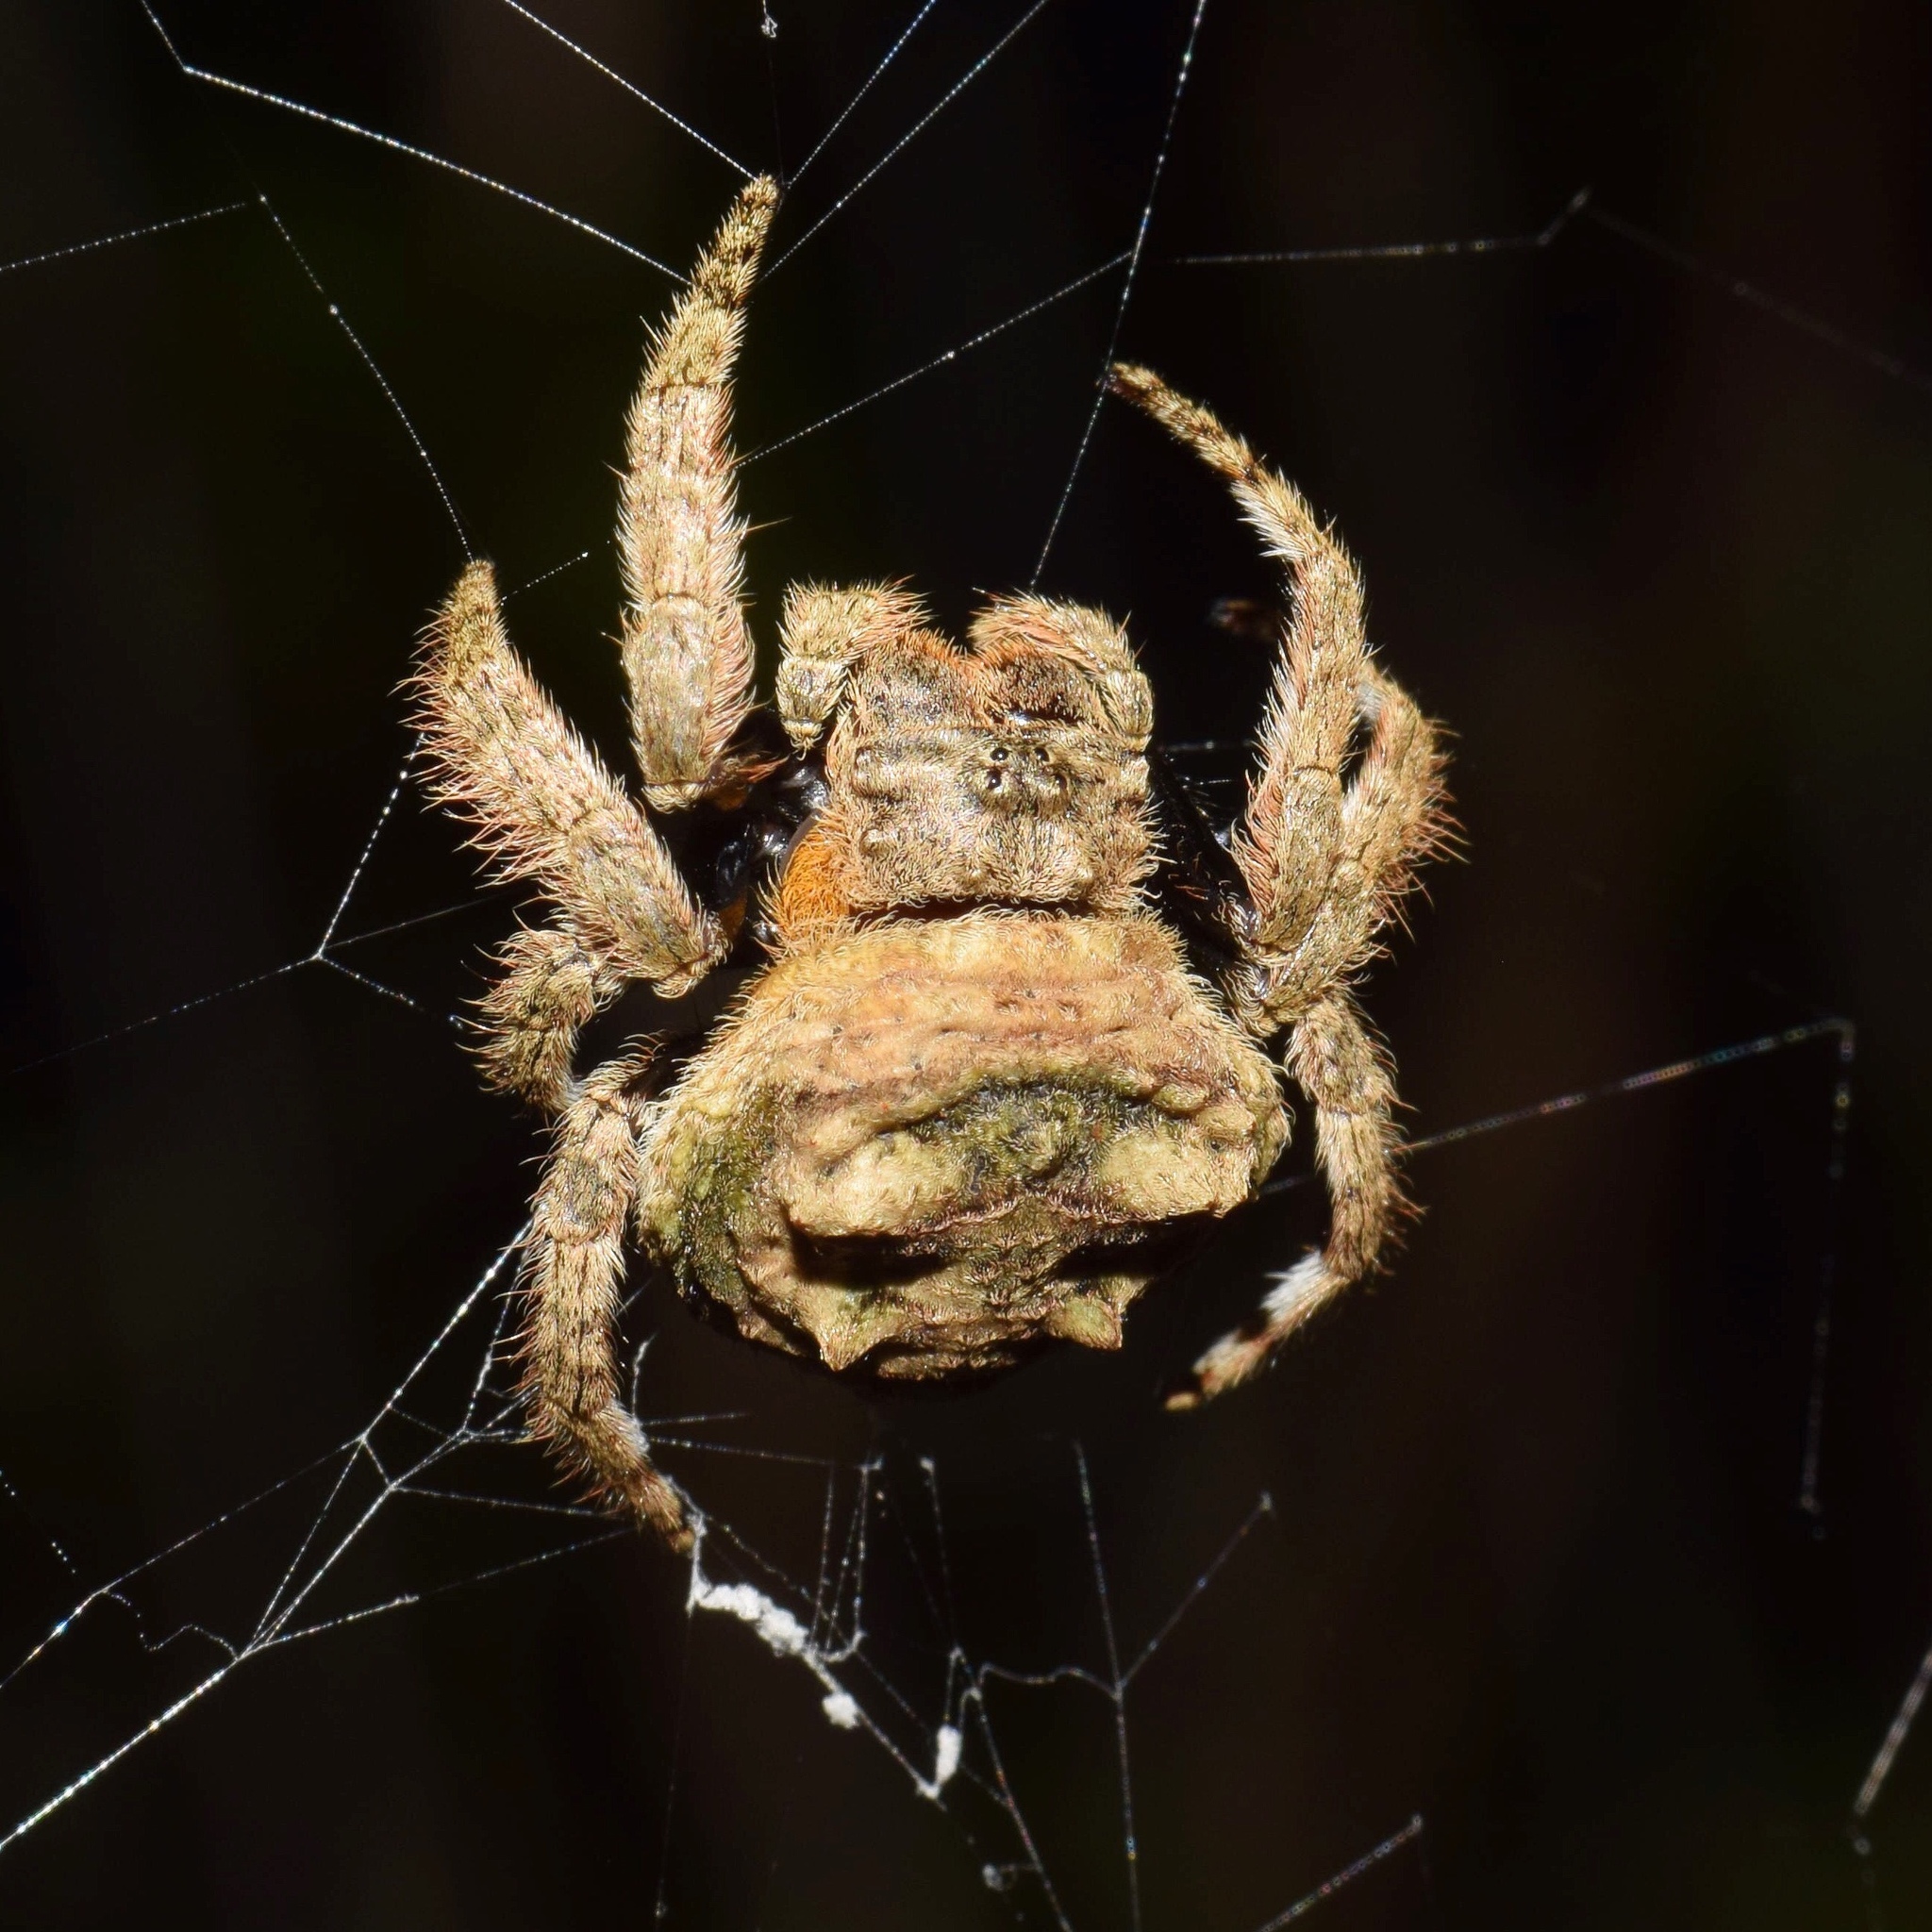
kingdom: Animalia
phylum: Arthropoda
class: Arachnida
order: Araneae
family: Araneidae
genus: Caerostris
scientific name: Caerostris sexcuspidata
